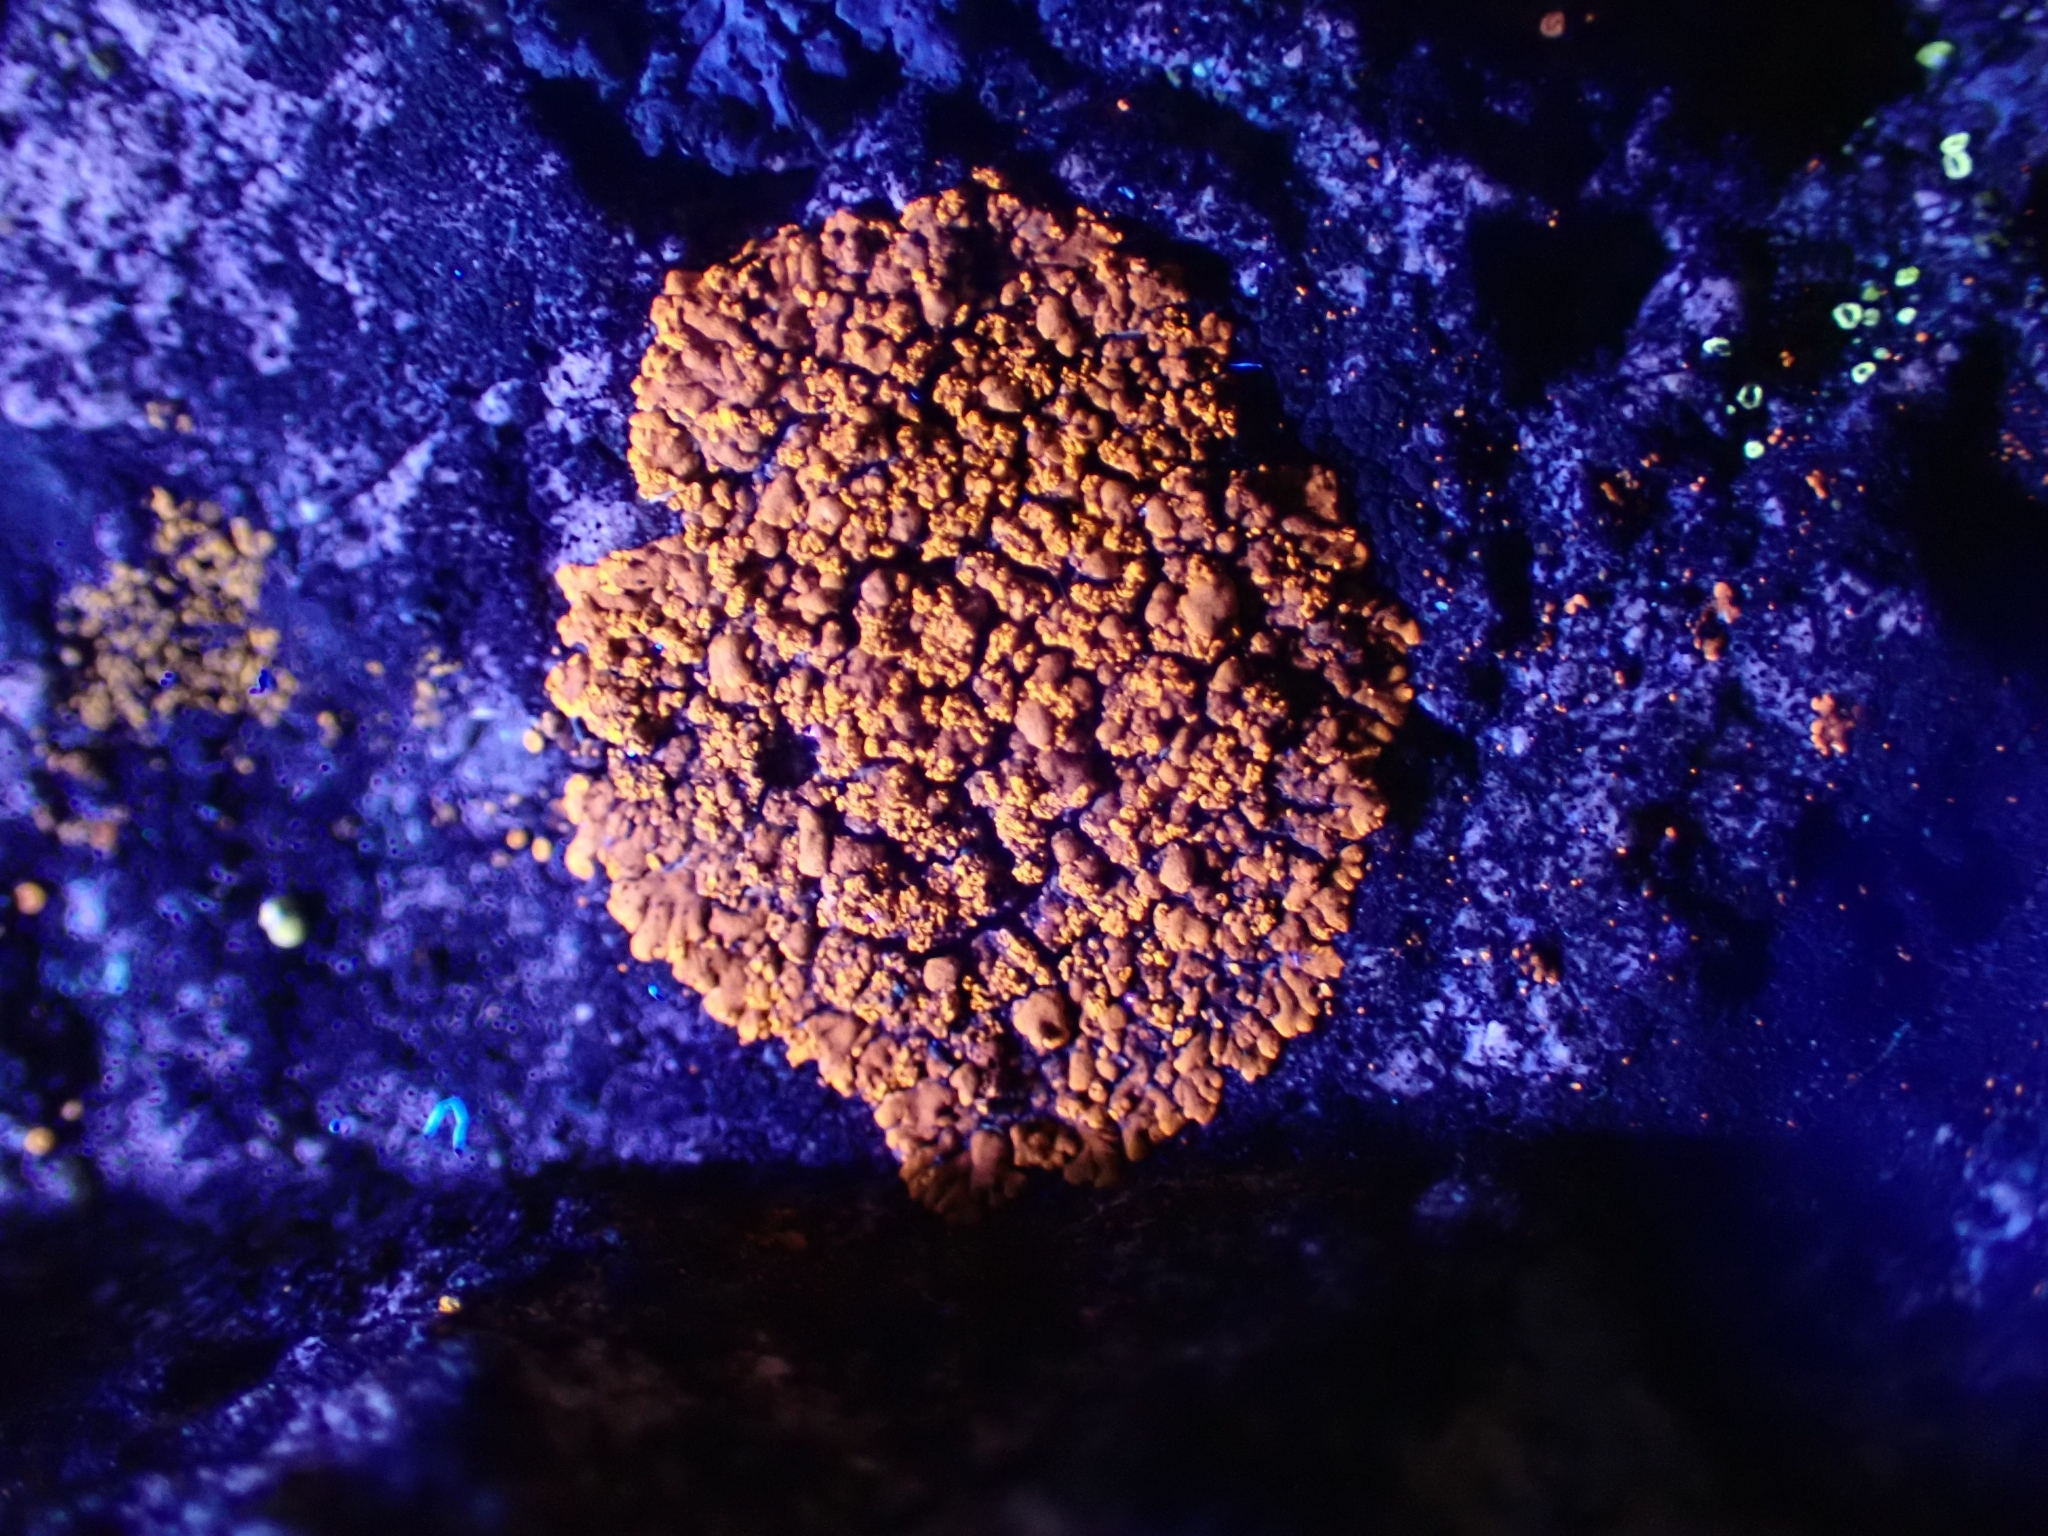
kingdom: Fungi
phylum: Ascomycota
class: Lecanoromycetes
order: Teloschistales
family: Teloschistaceae
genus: Calogaya
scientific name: Calogaya decipiens
